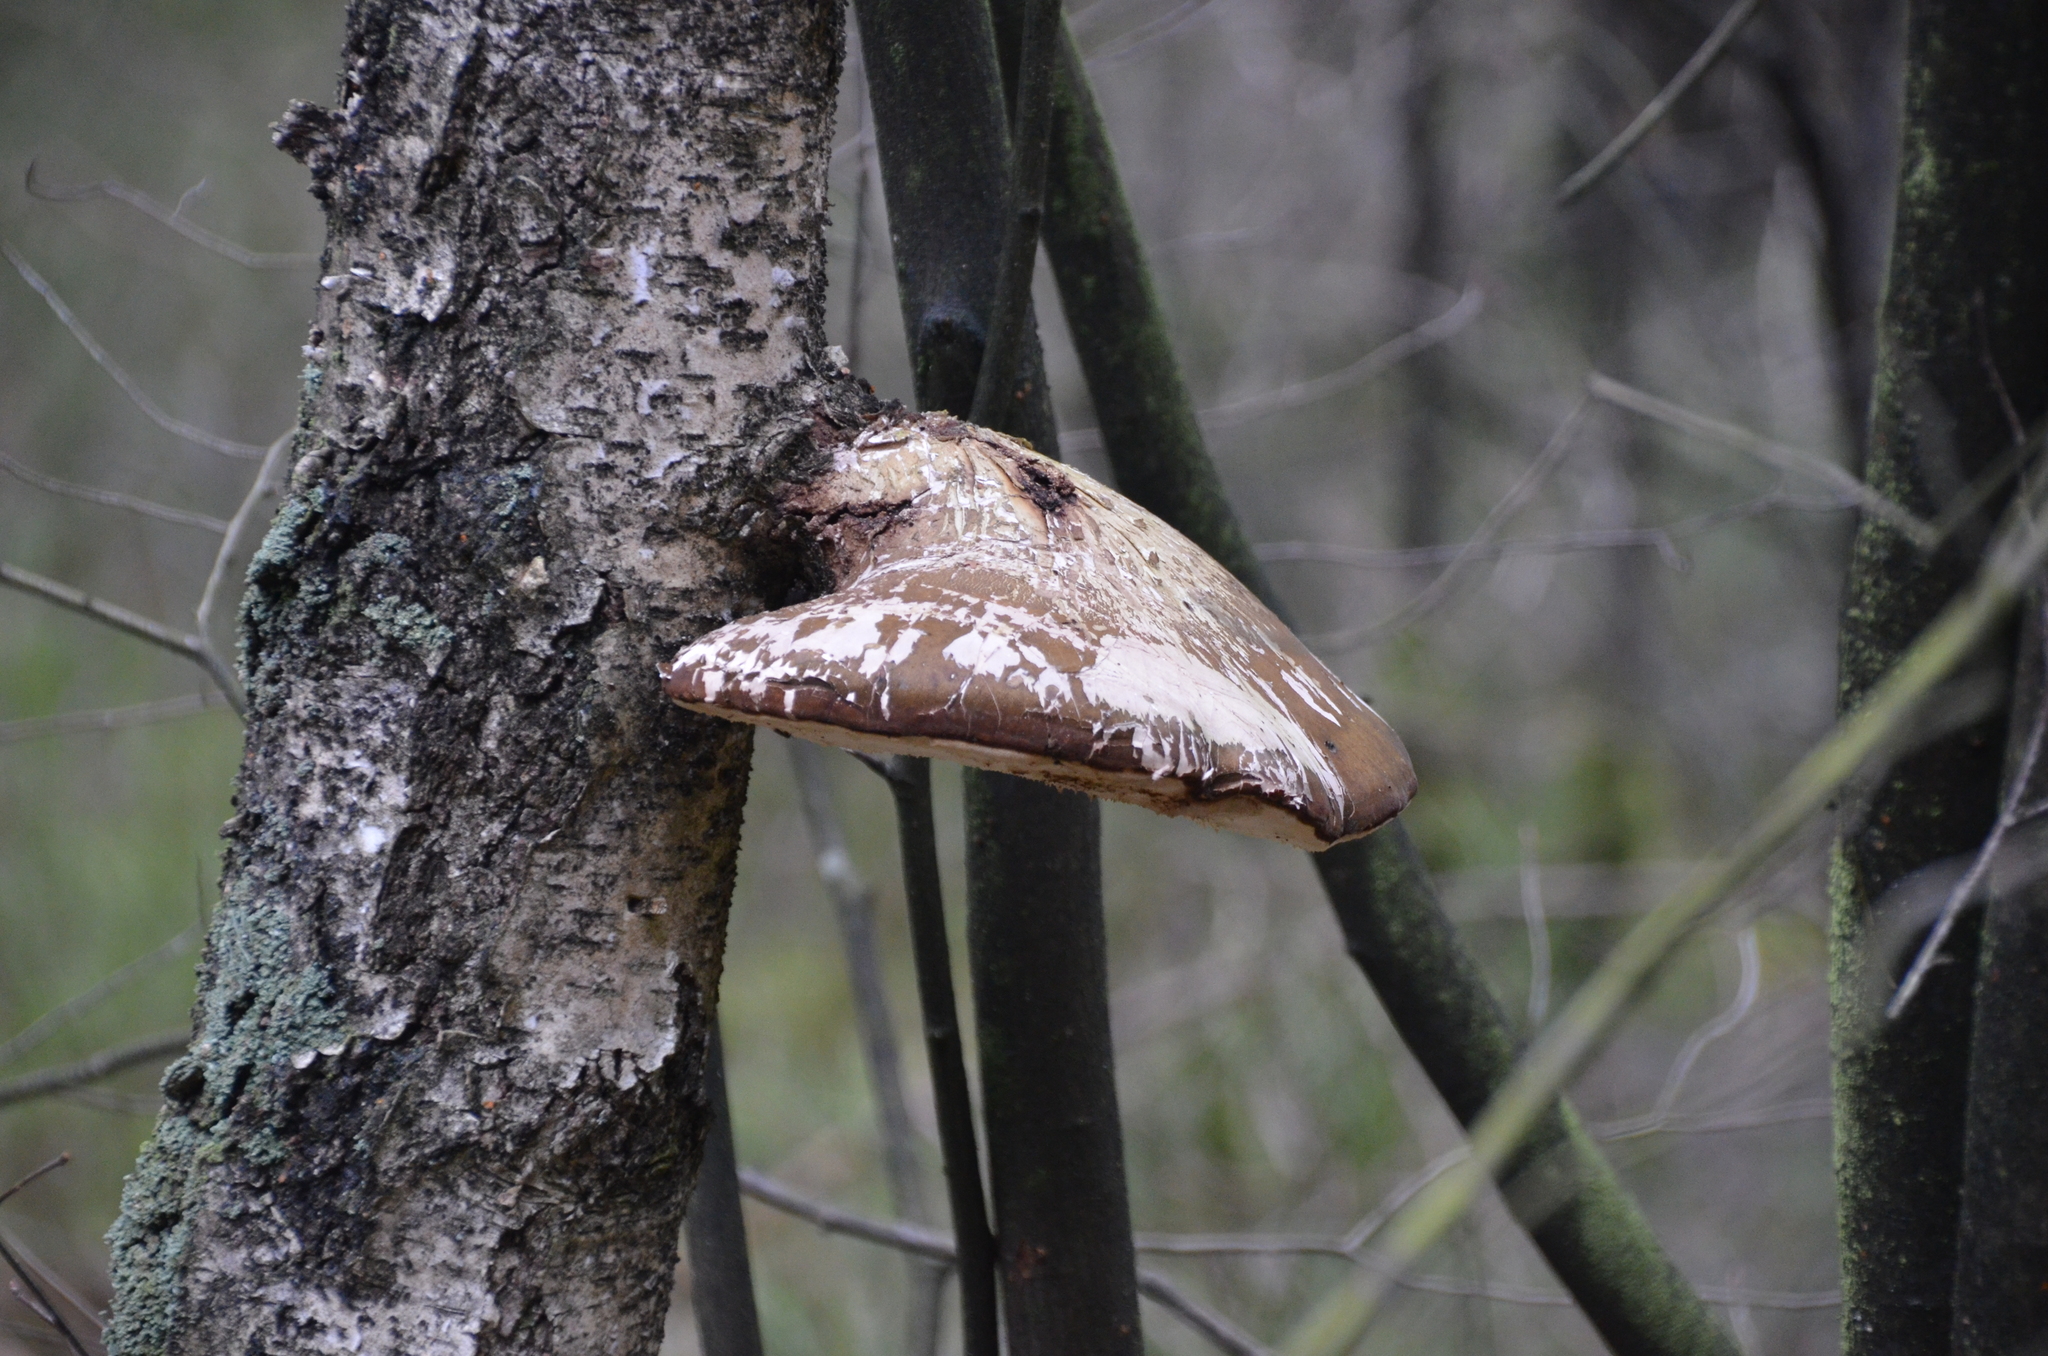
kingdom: Fungi
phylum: Basidiomycota
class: Agaricomycetes
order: Polyporales
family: Fomitopsidaceae
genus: Fomitopsis
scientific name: Fomitopsis betulina
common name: Birch polypore
